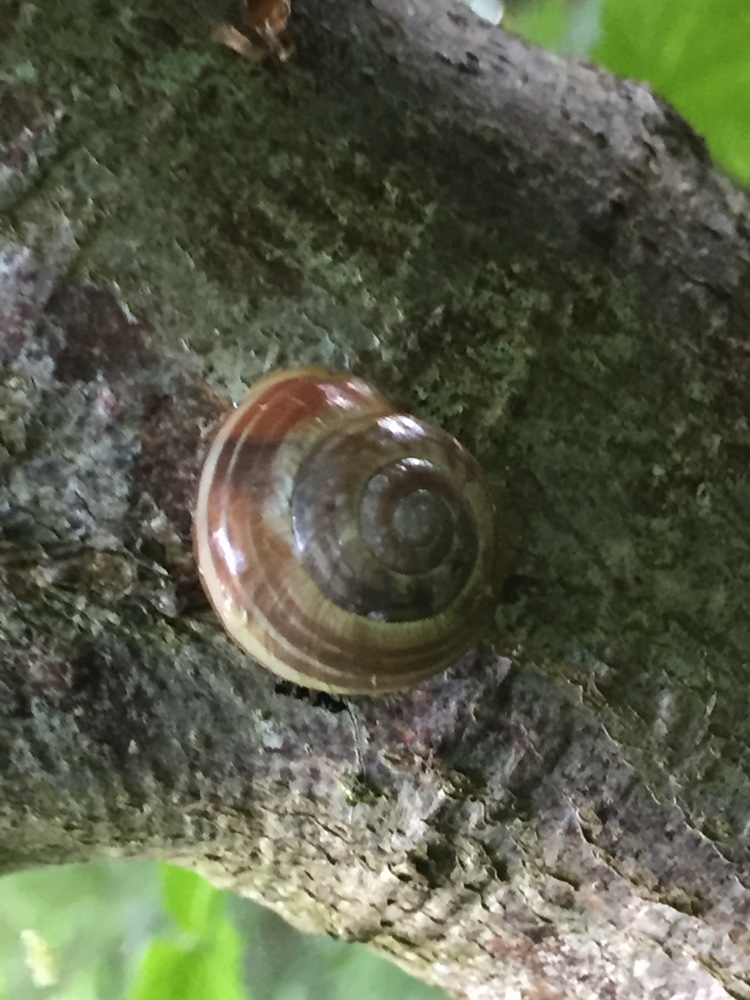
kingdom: Animalia
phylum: Mollusca
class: Gastropoda
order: Stylommatophora
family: Helicidae
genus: Cepaea
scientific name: Cepaea hortensis
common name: White-lip gardensnail
